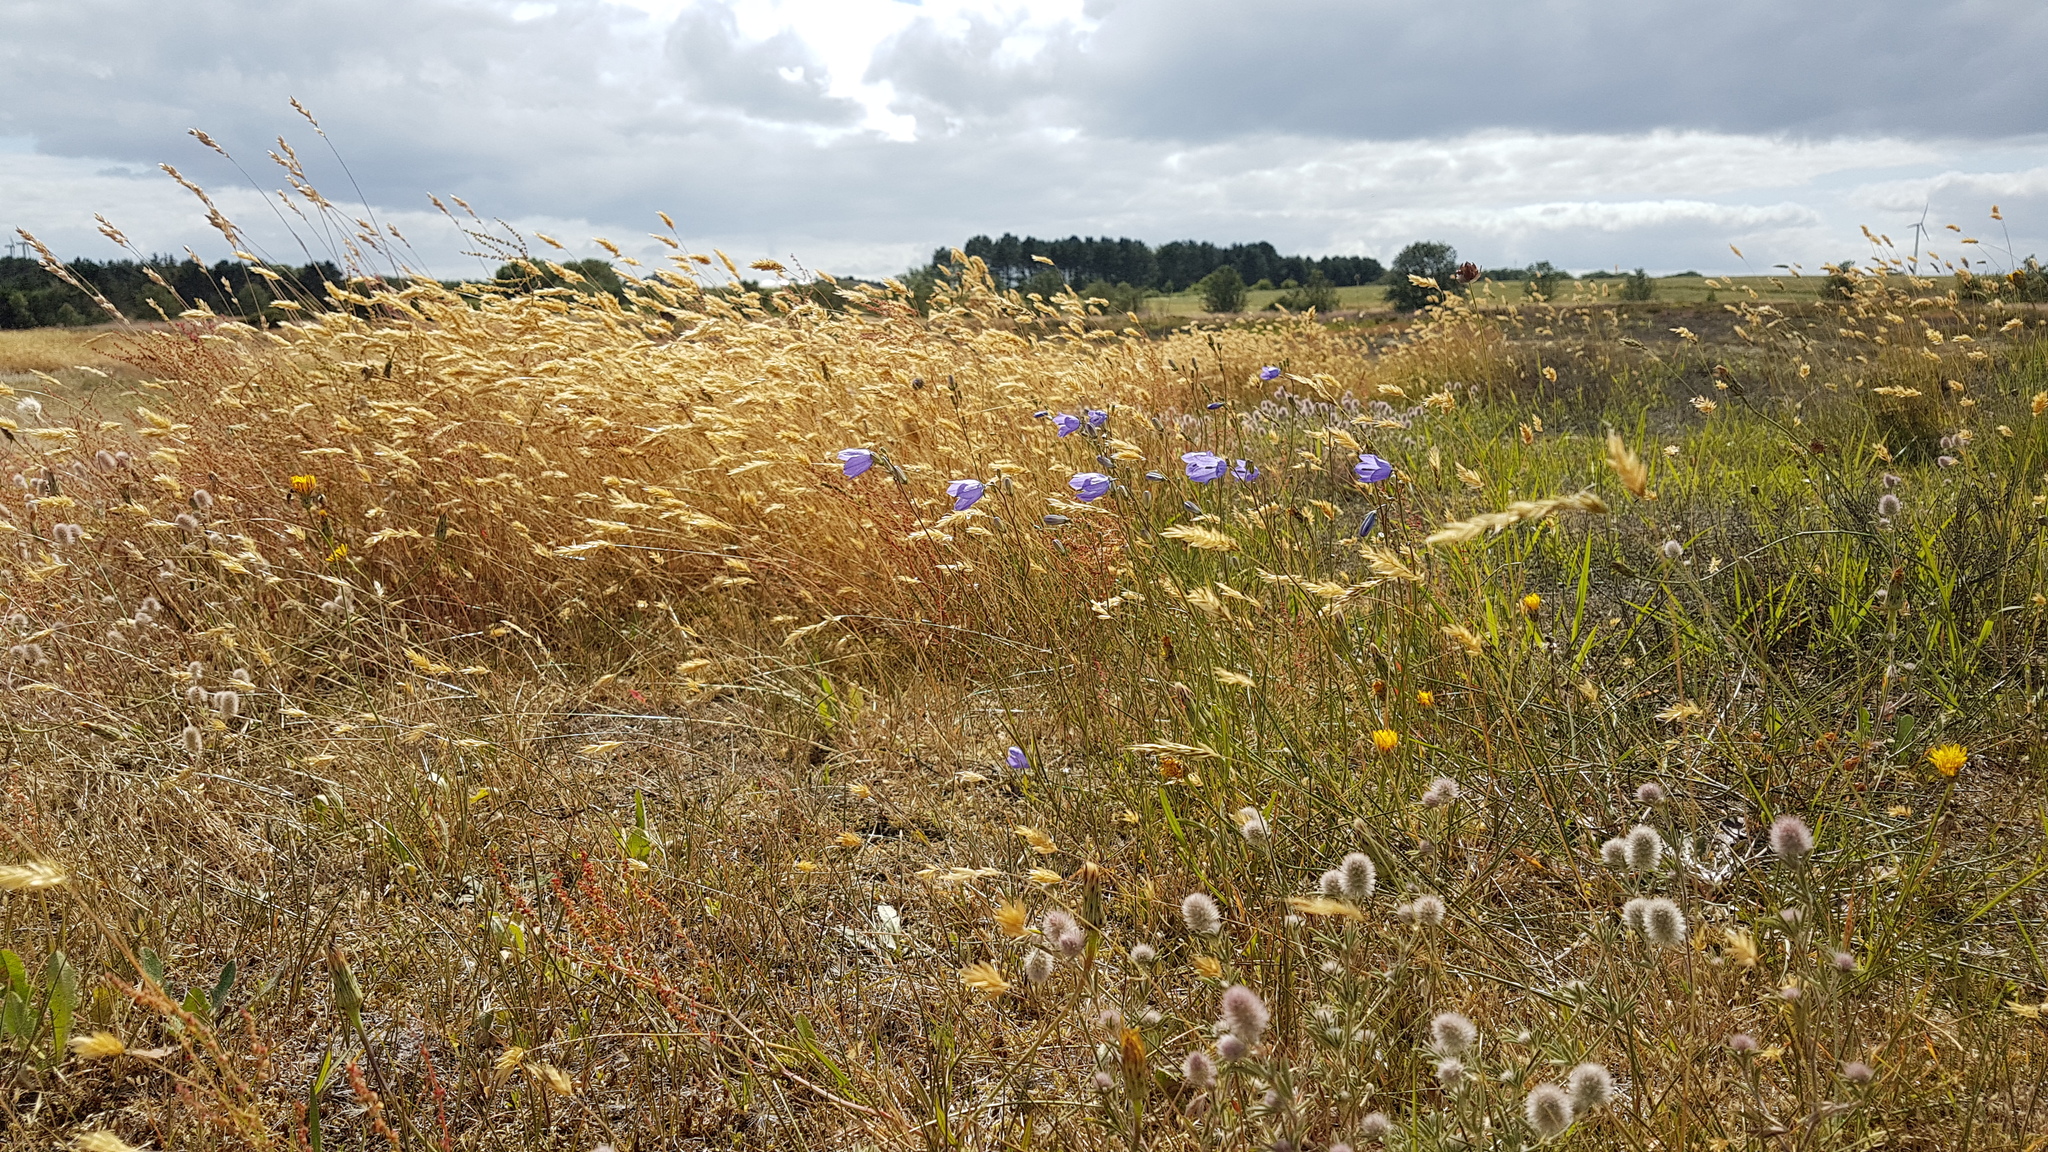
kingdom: Plantae
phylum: Tracheophyta
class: Liliopsida
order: Poales
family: Poaceae
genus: Anthoxanthum
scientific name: Anthoxanthum odoratum
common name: Sweet vernalgrass
